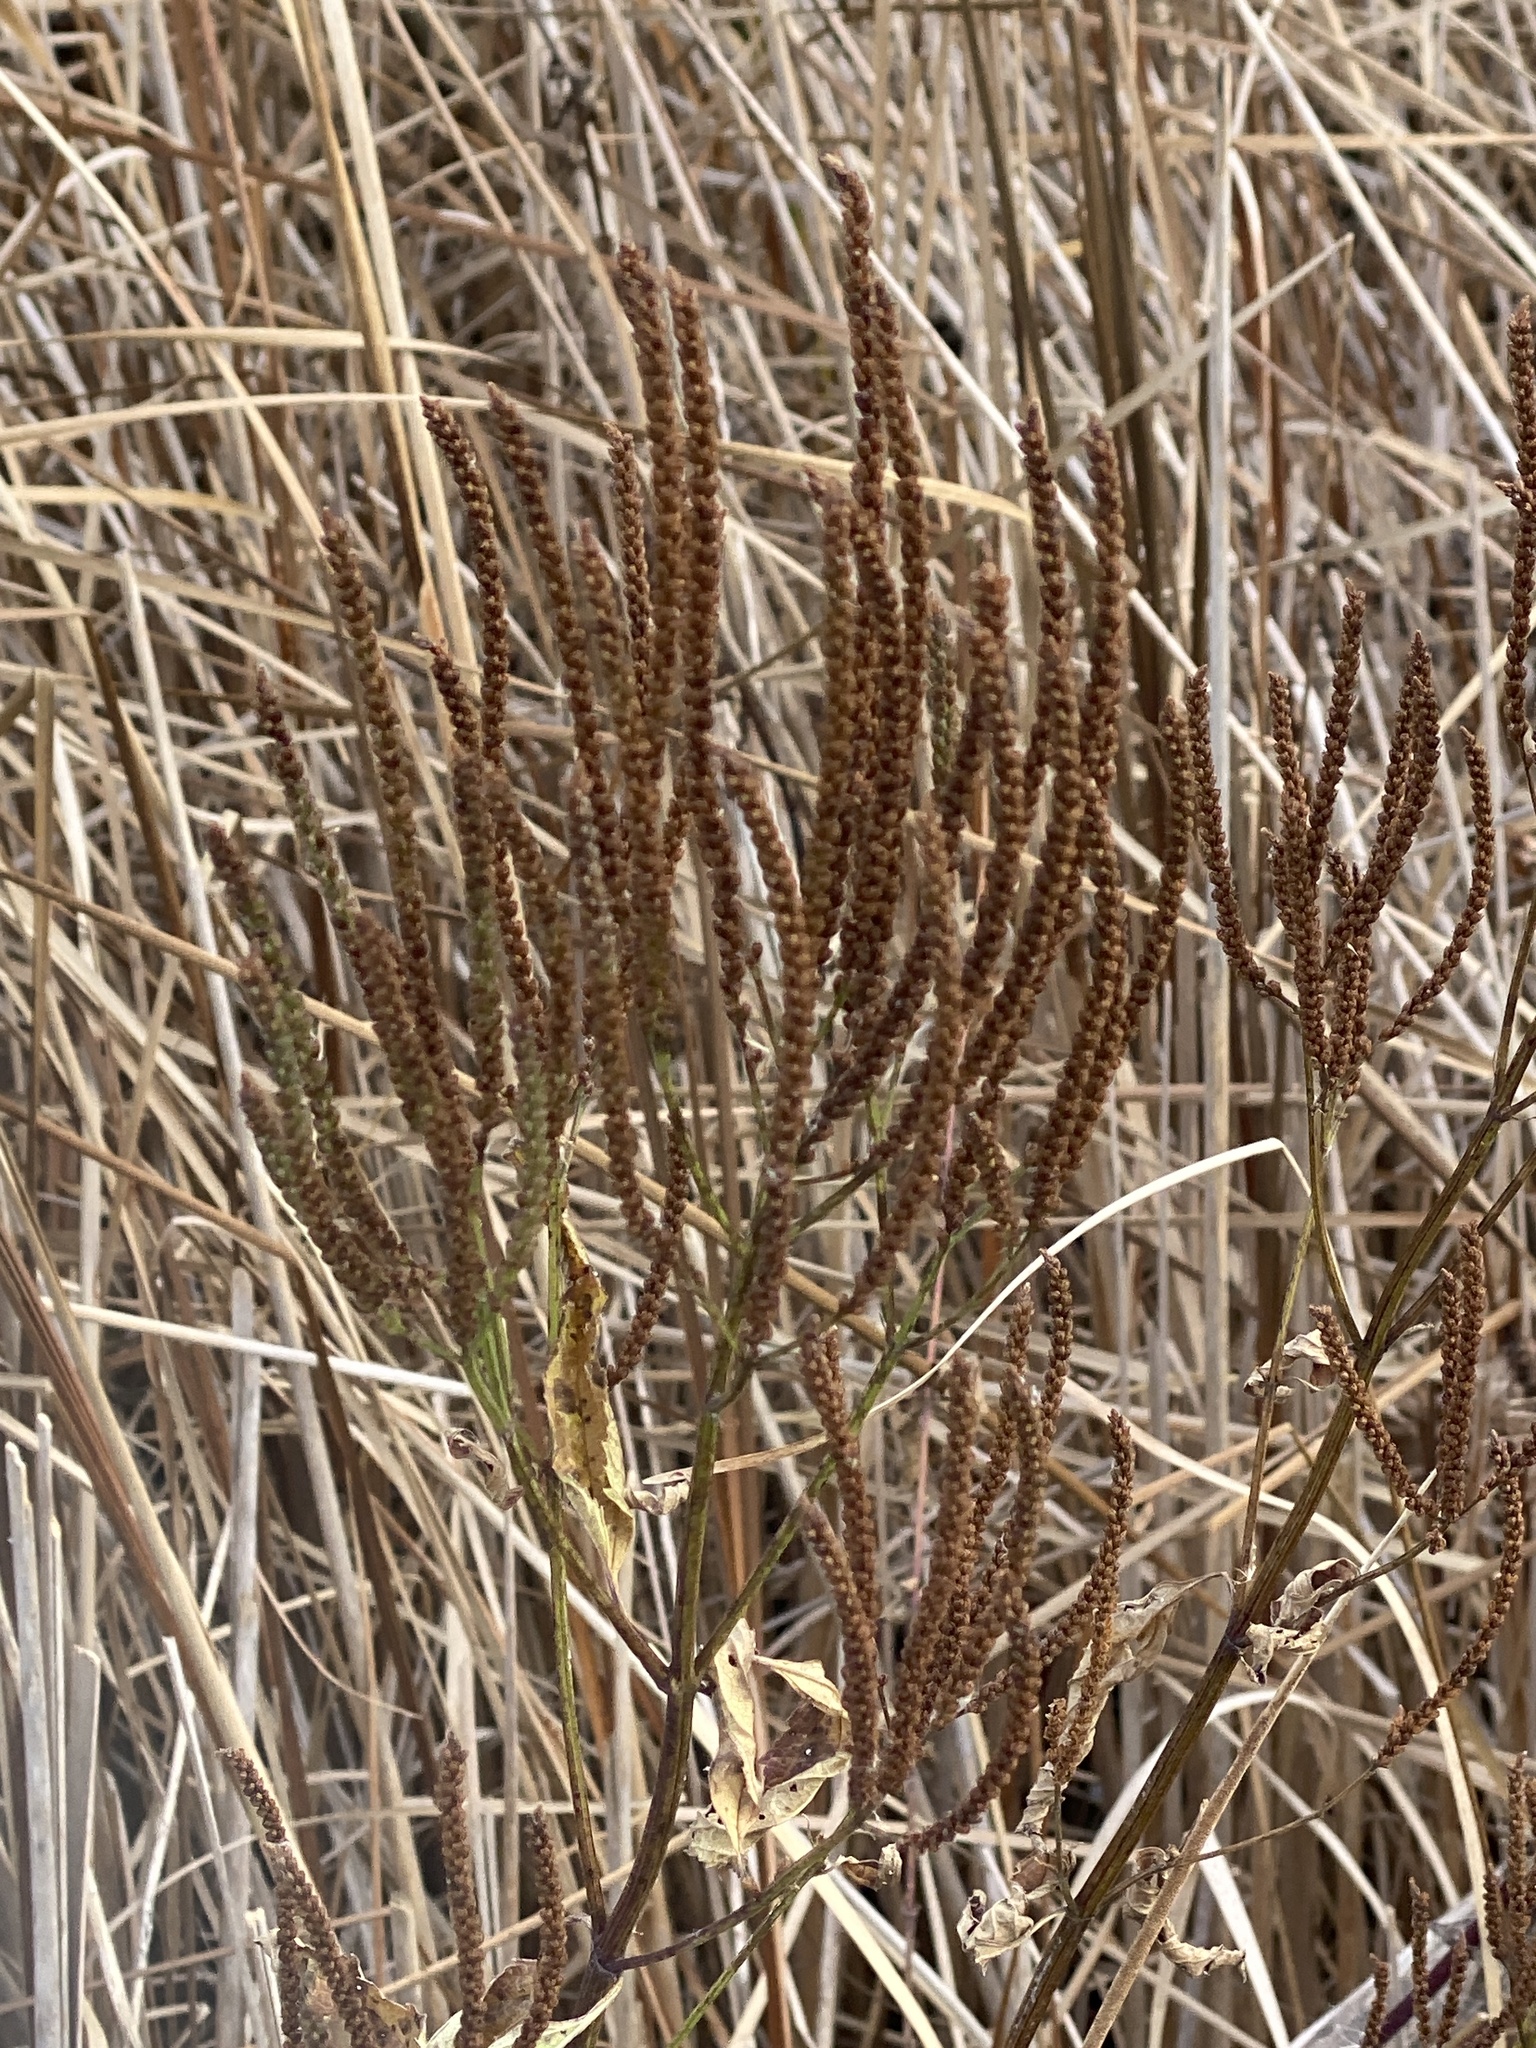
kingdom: Plantae
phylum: Tracheophyta
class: Magnoliopsida
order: Lamiales
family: Verbenaceae
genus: Verbena
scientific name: Verbena hastata
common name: American blue vervain
